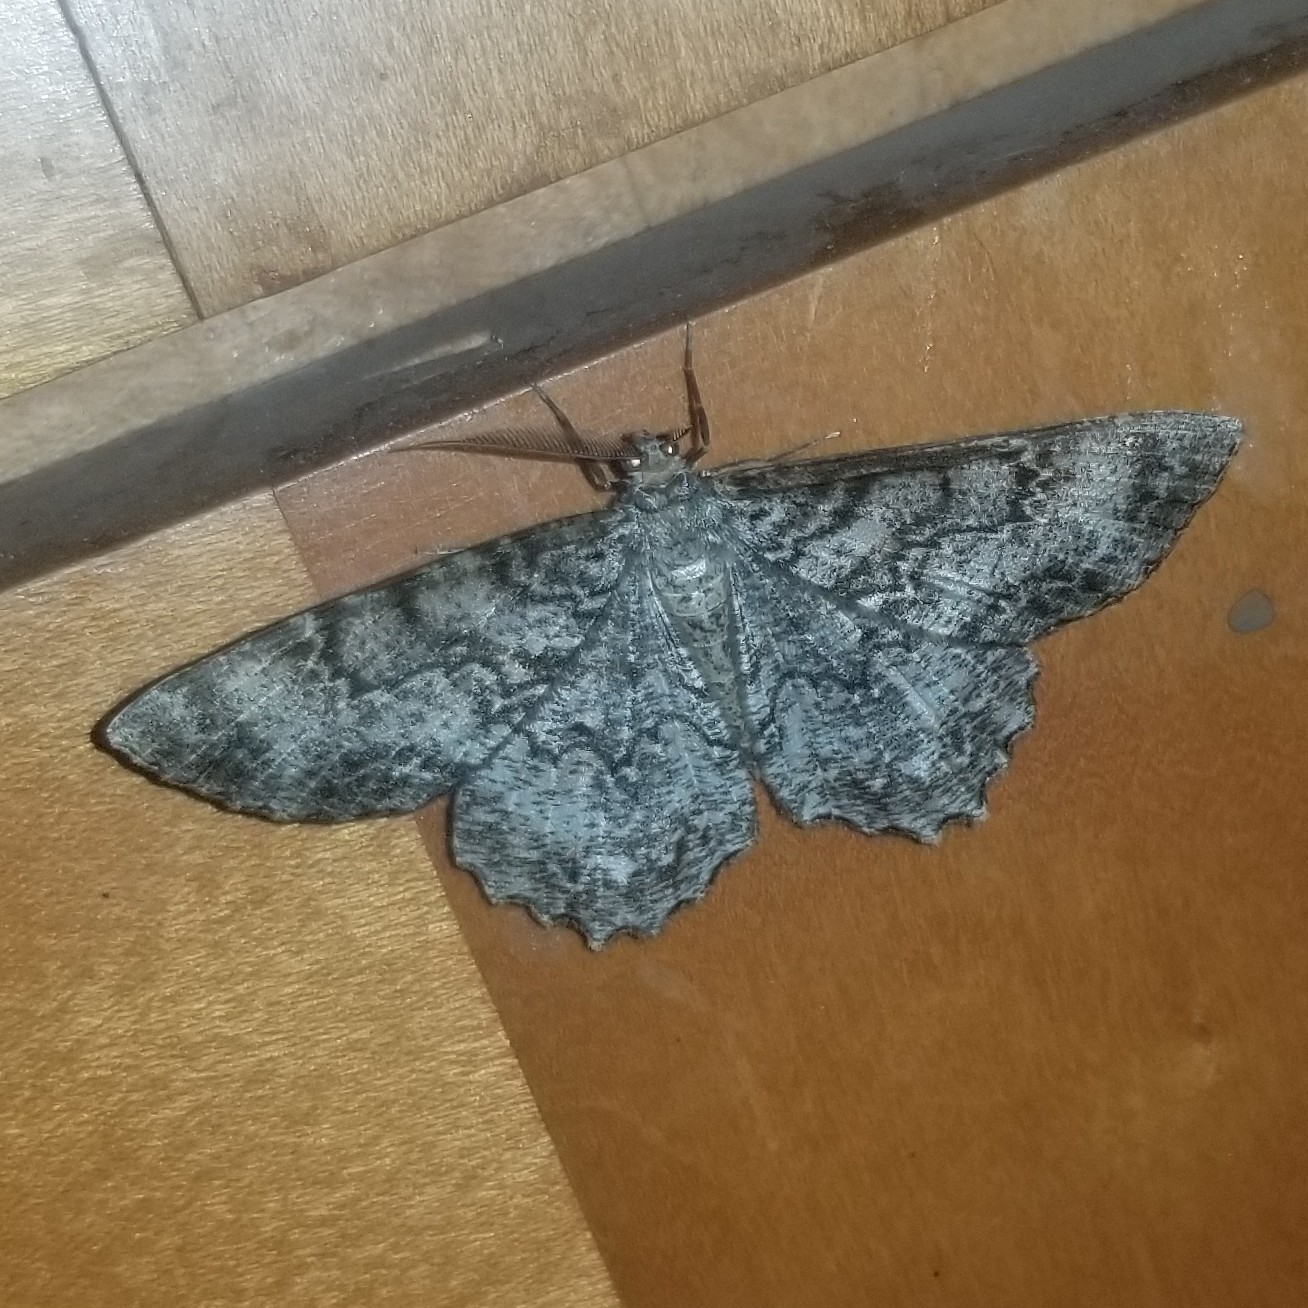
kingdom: Animalia
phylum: Arthropoda
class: Insecta
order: Lepidoptera
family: Geometridae
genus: Epimecis
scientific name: Epimecis hortaria
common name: Tulip-tree beauty
